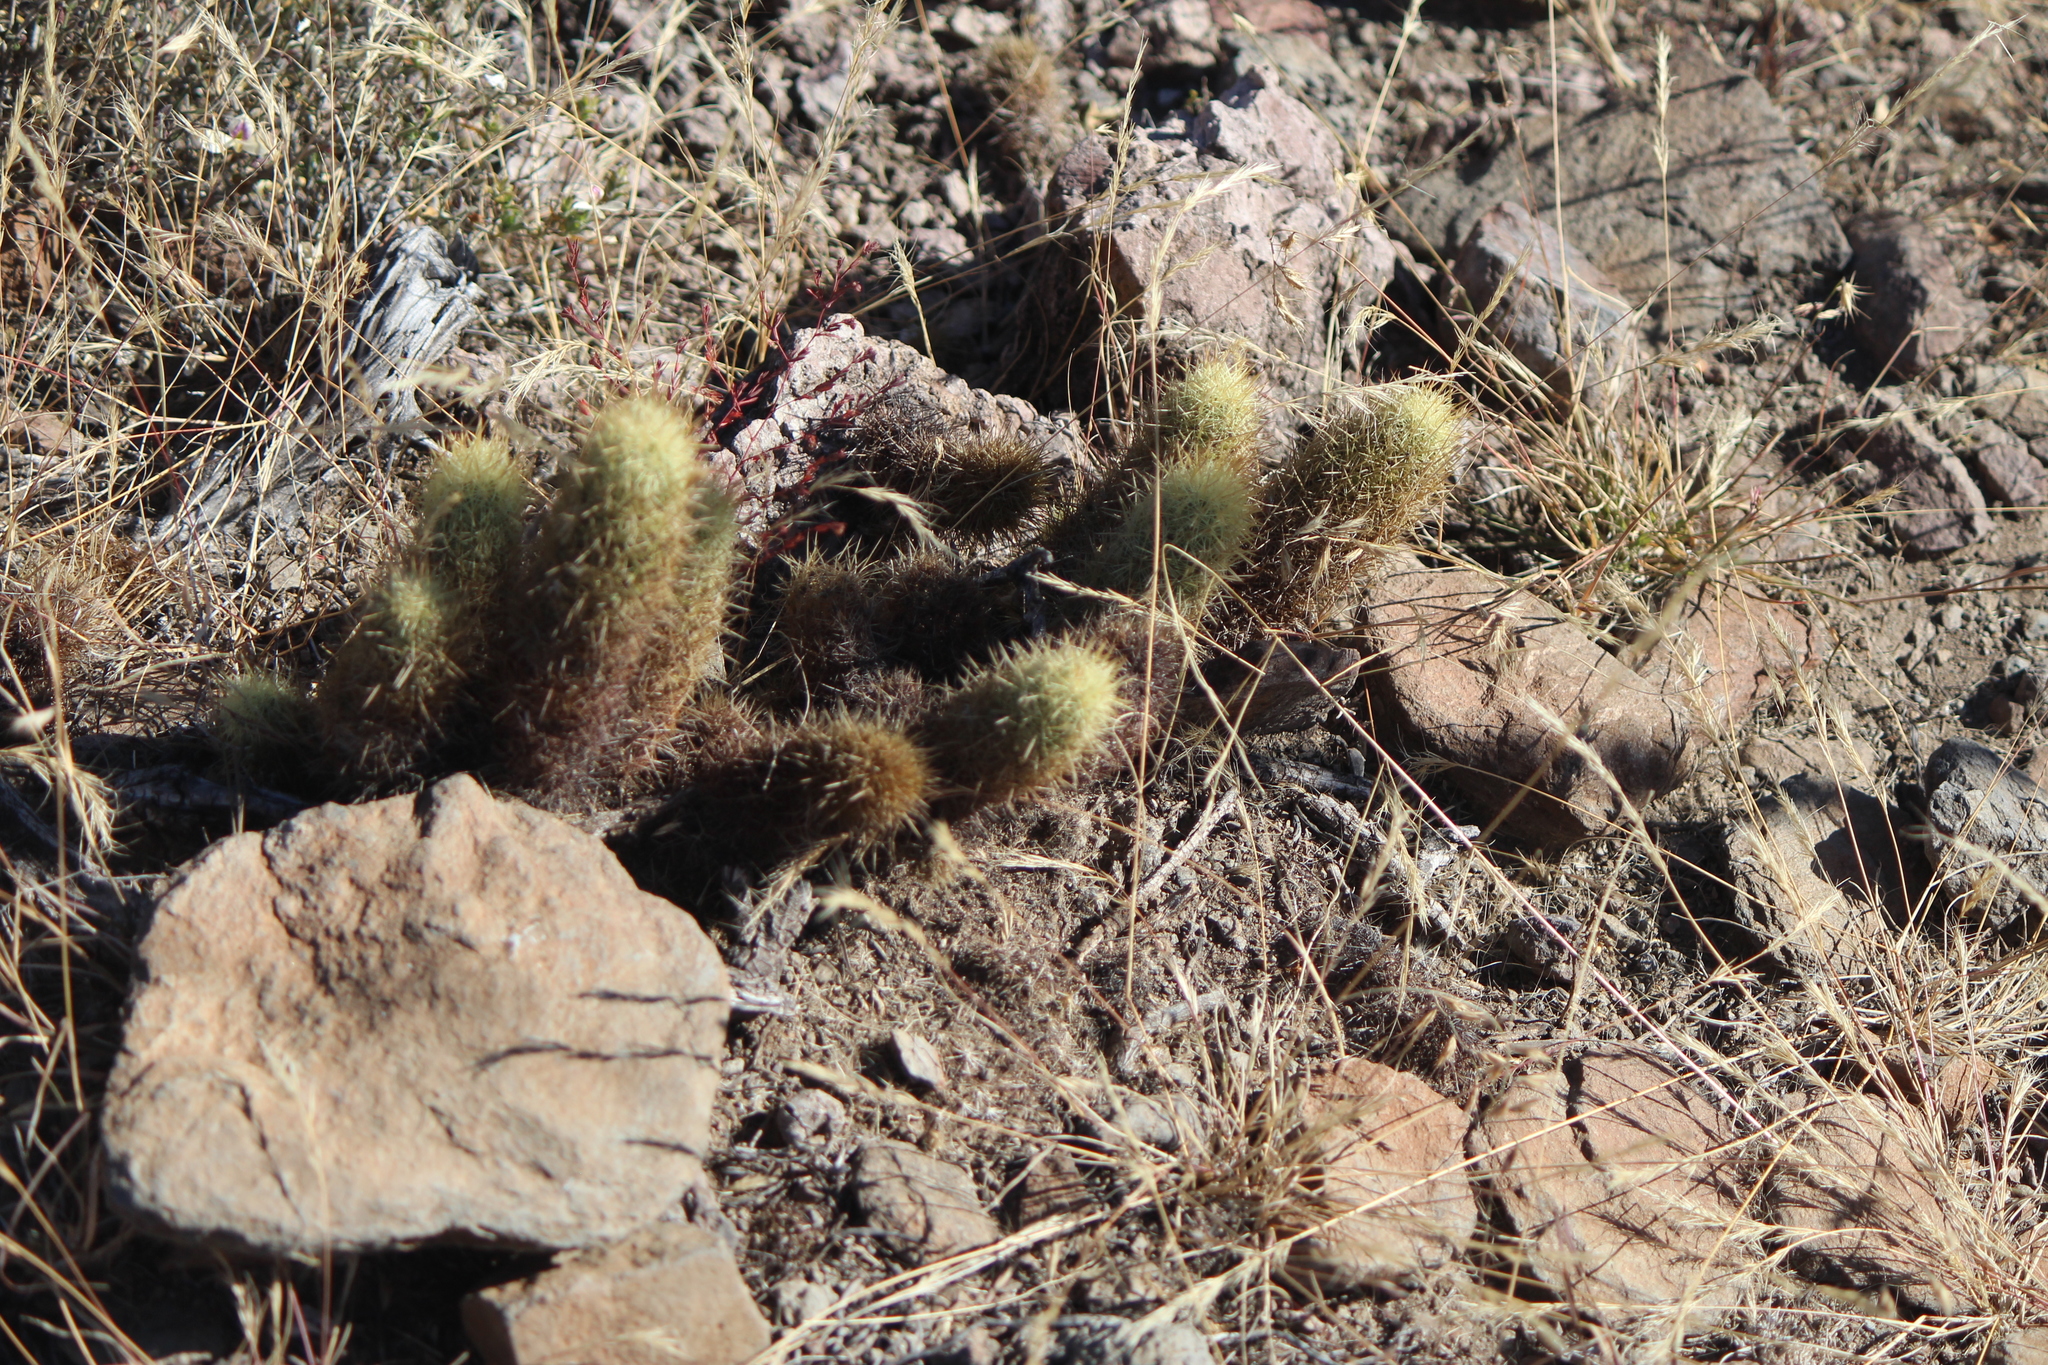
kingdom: Plantae
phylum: Tracheophyta
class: Magnoliopsida
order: Caryophyllales
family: Cactaceae
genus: Mammillaria
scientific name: Mammillaria elongata
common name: Golden star cactus
